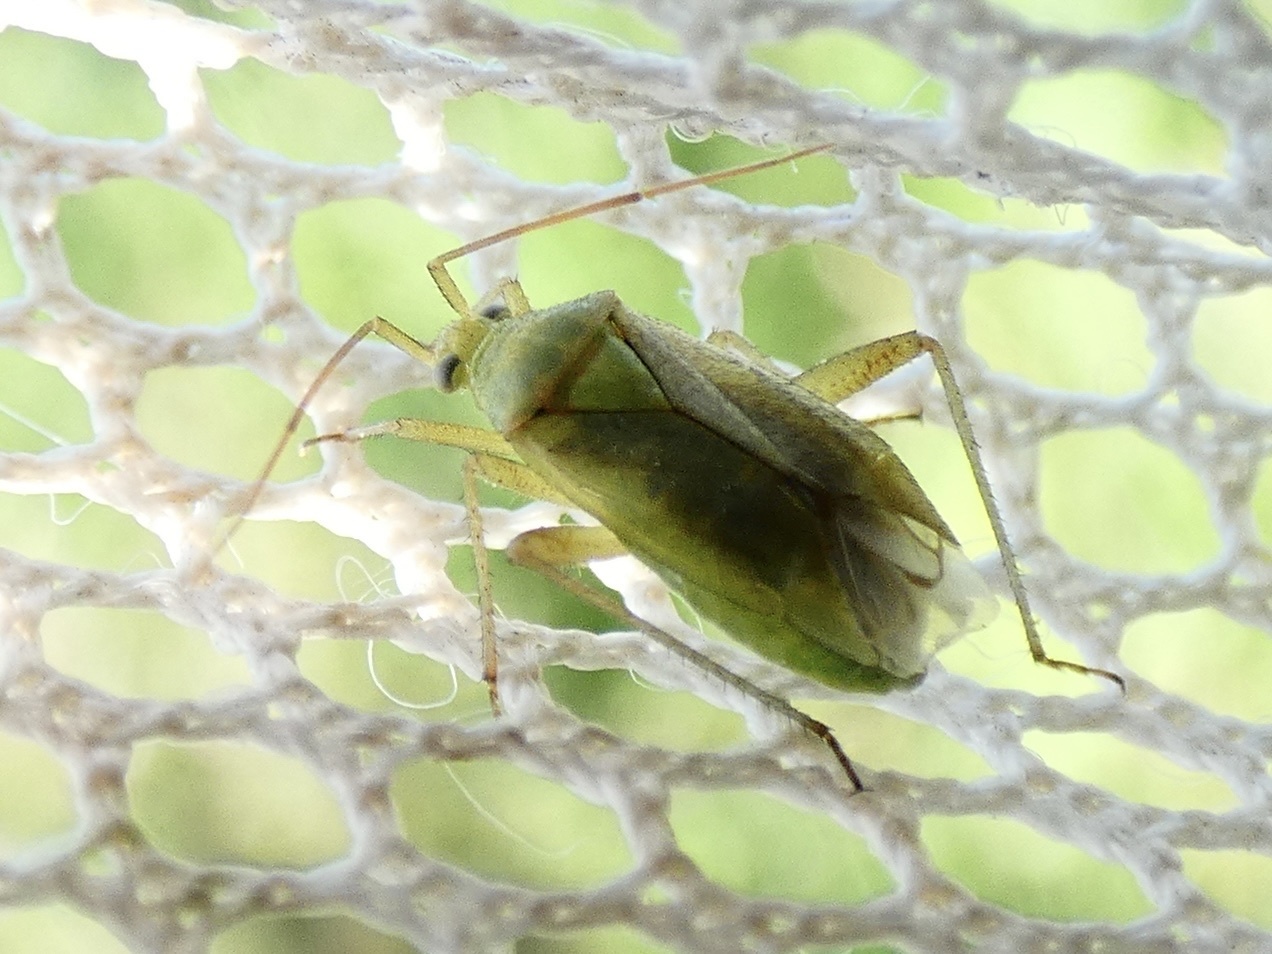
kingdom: Animalia
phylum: Arthropoda
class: Insecta
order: Hemiptera
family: Miridae
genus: Closterotomus
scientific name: Closterotomus norvegicus
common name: Plant bug
